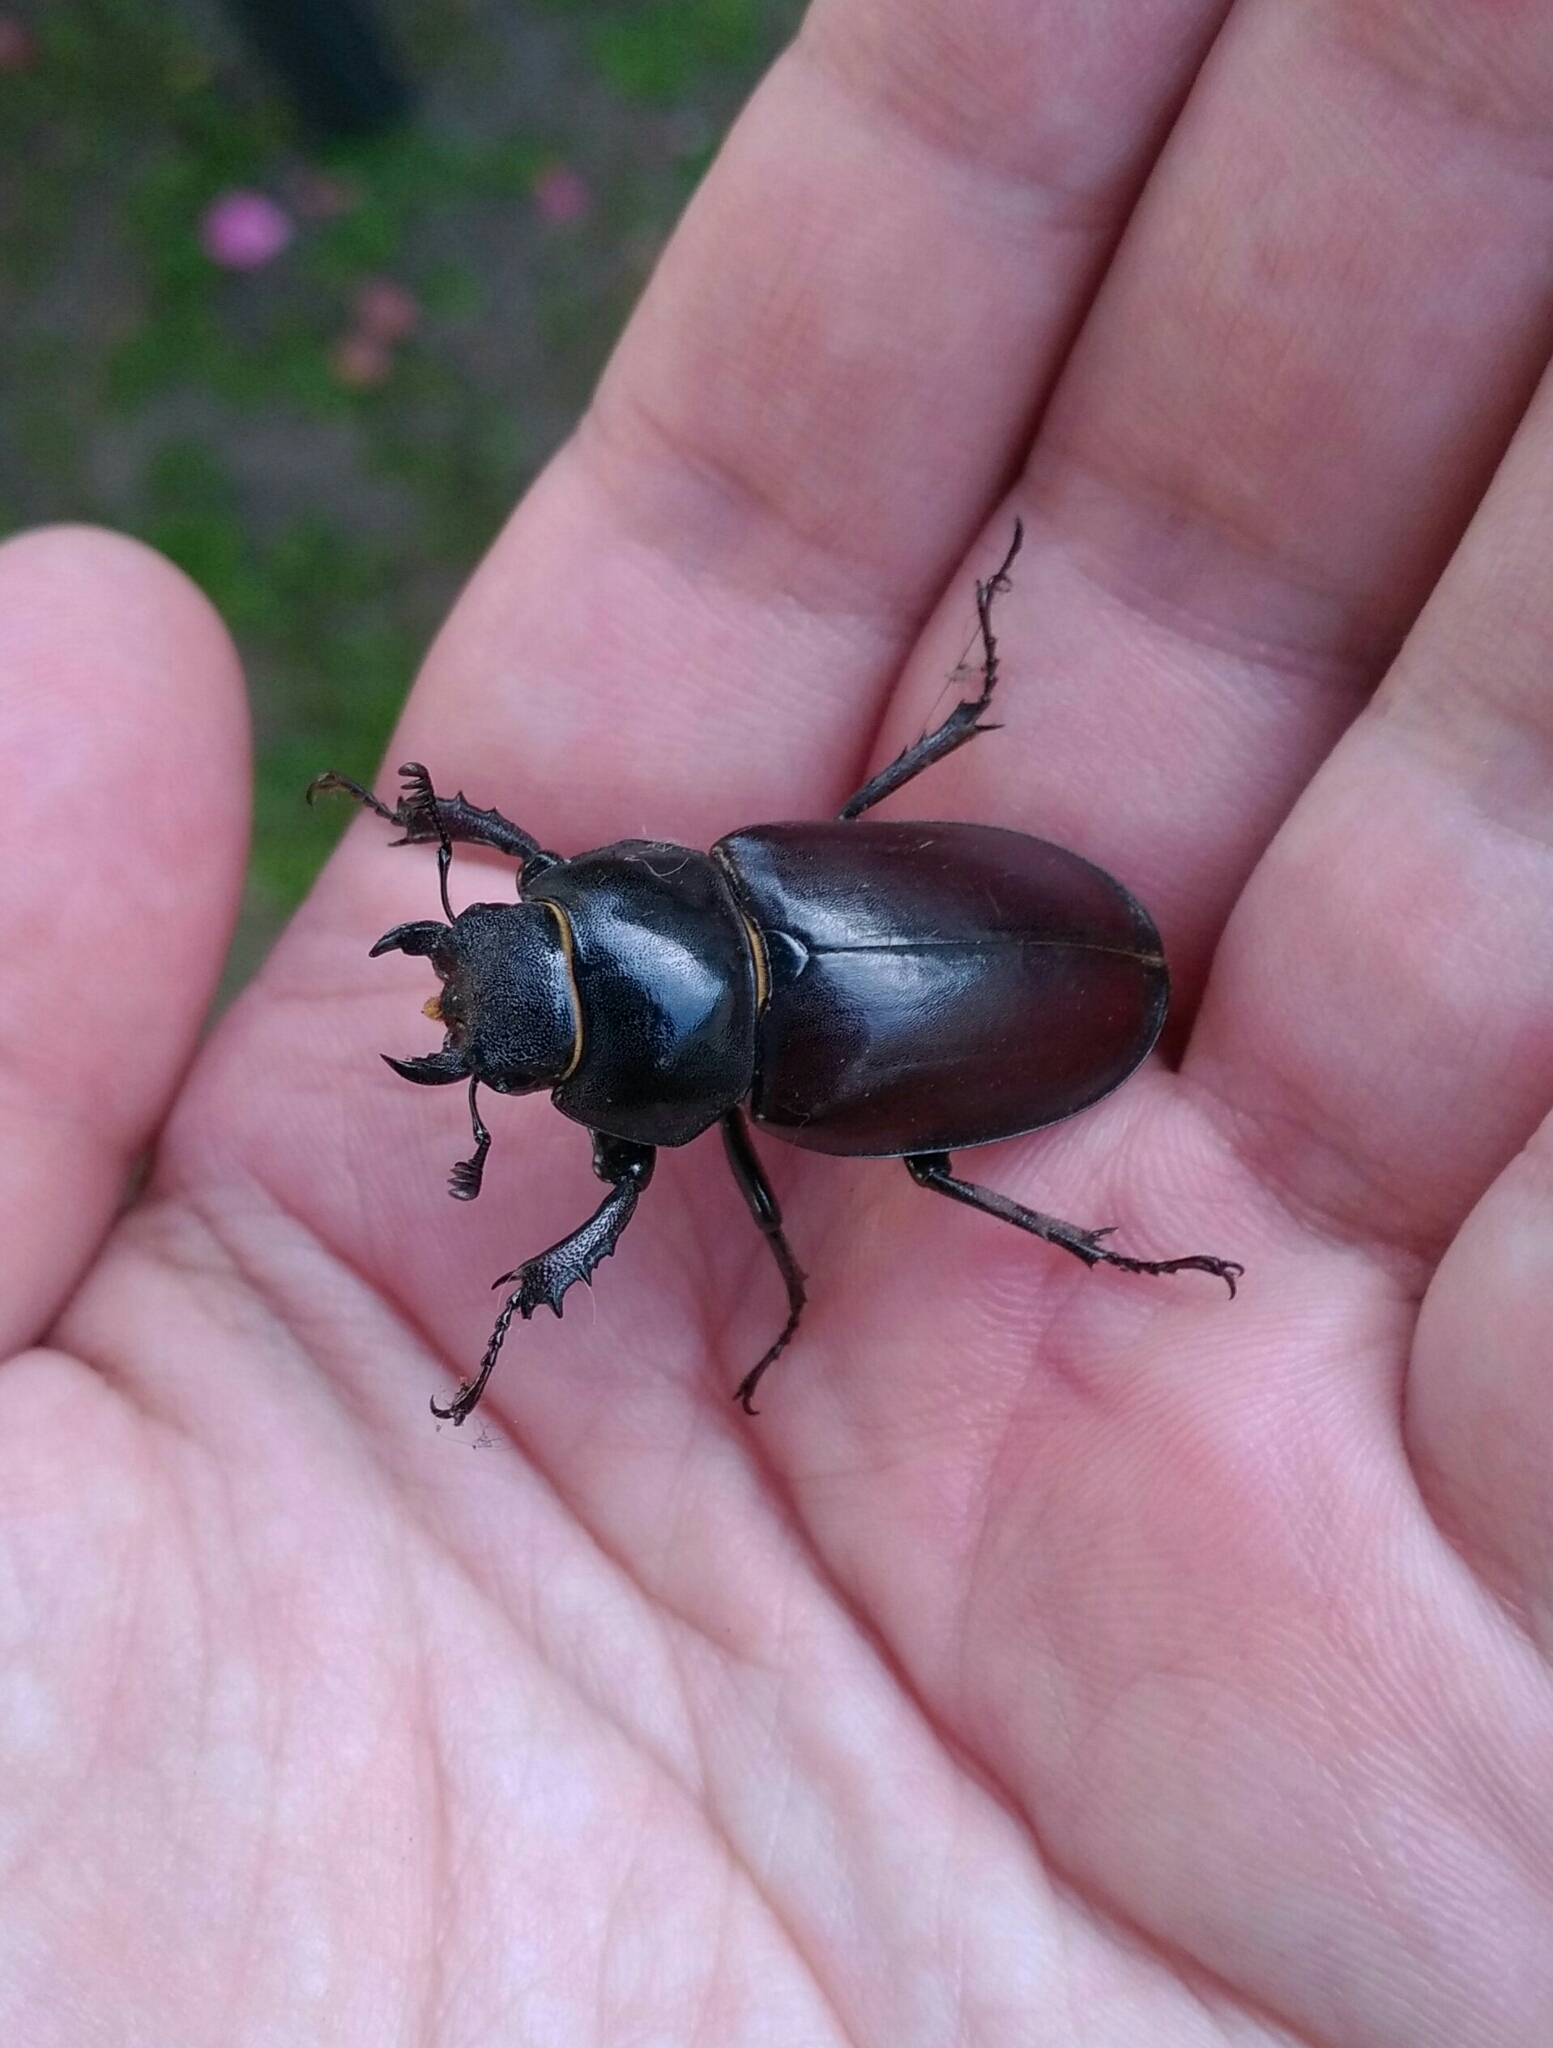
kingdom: Animalia
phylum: Arthropoda
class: Insecta
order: Coleoptera
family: Lucanidae
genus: Lucanus
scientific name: Lucanus cervus
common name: Stag beetle
